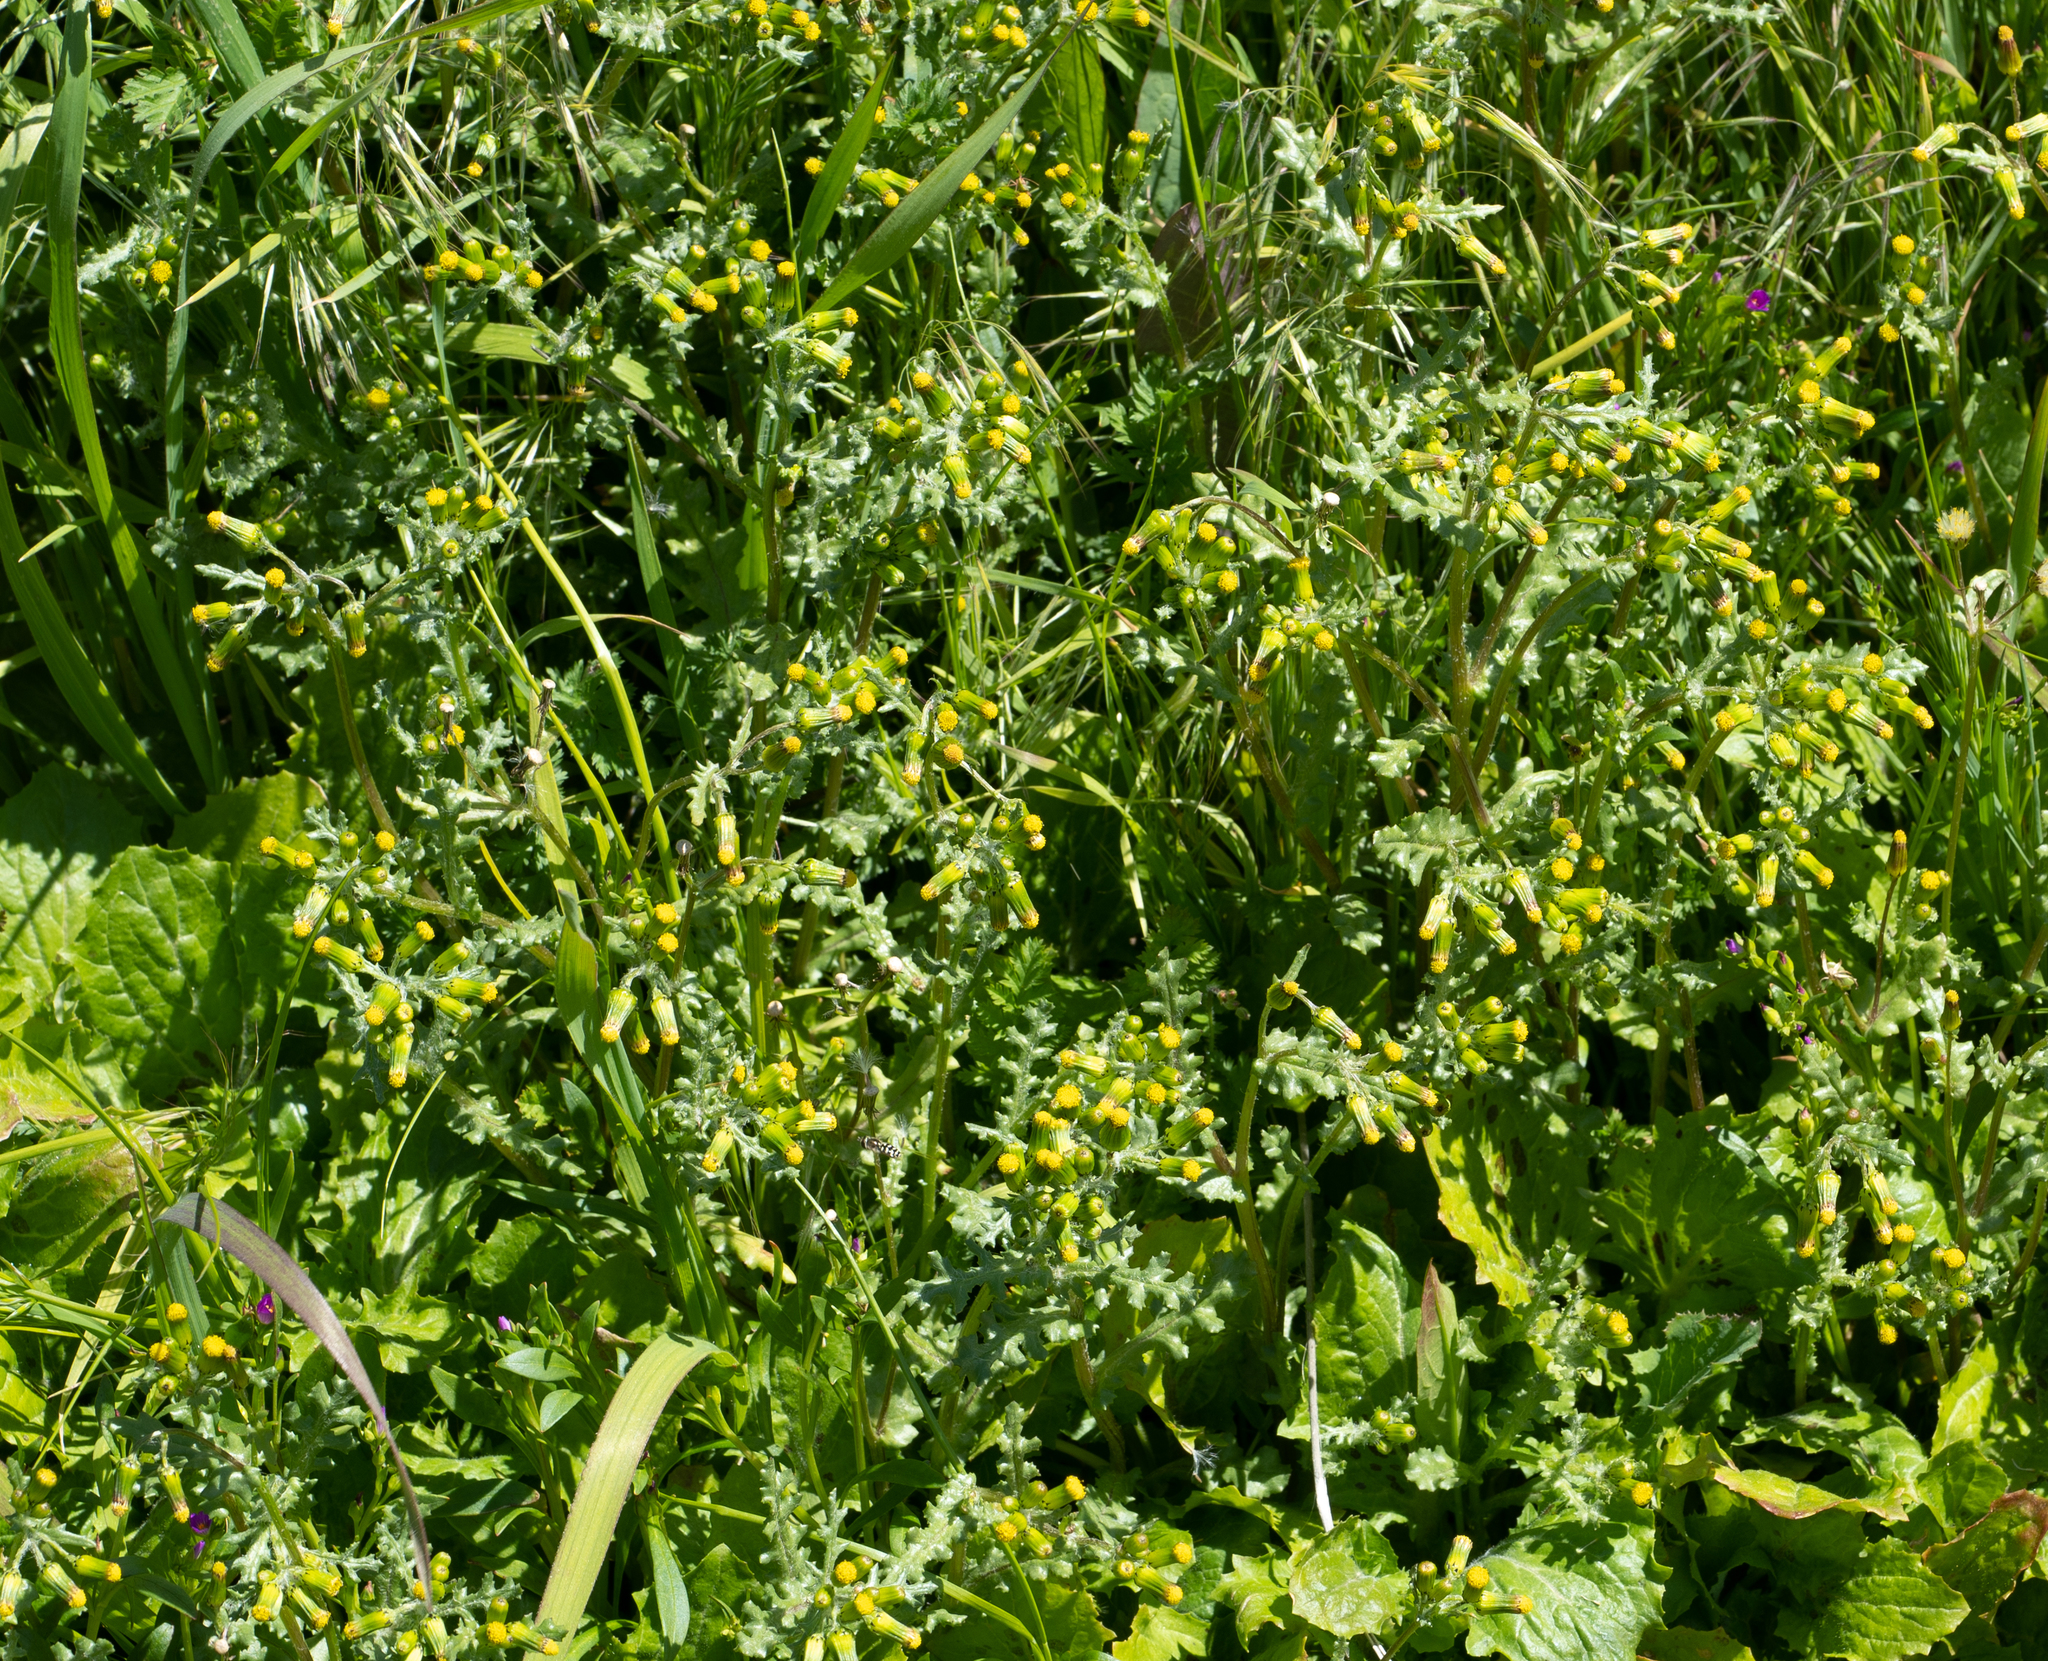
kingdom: Plantae
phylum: Tracheophyta
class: Magnoliopsida
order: Asterales
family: Asteraceae
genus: Senecio
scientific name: Senecio vulgaris
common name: Old-man-in-the-spring
